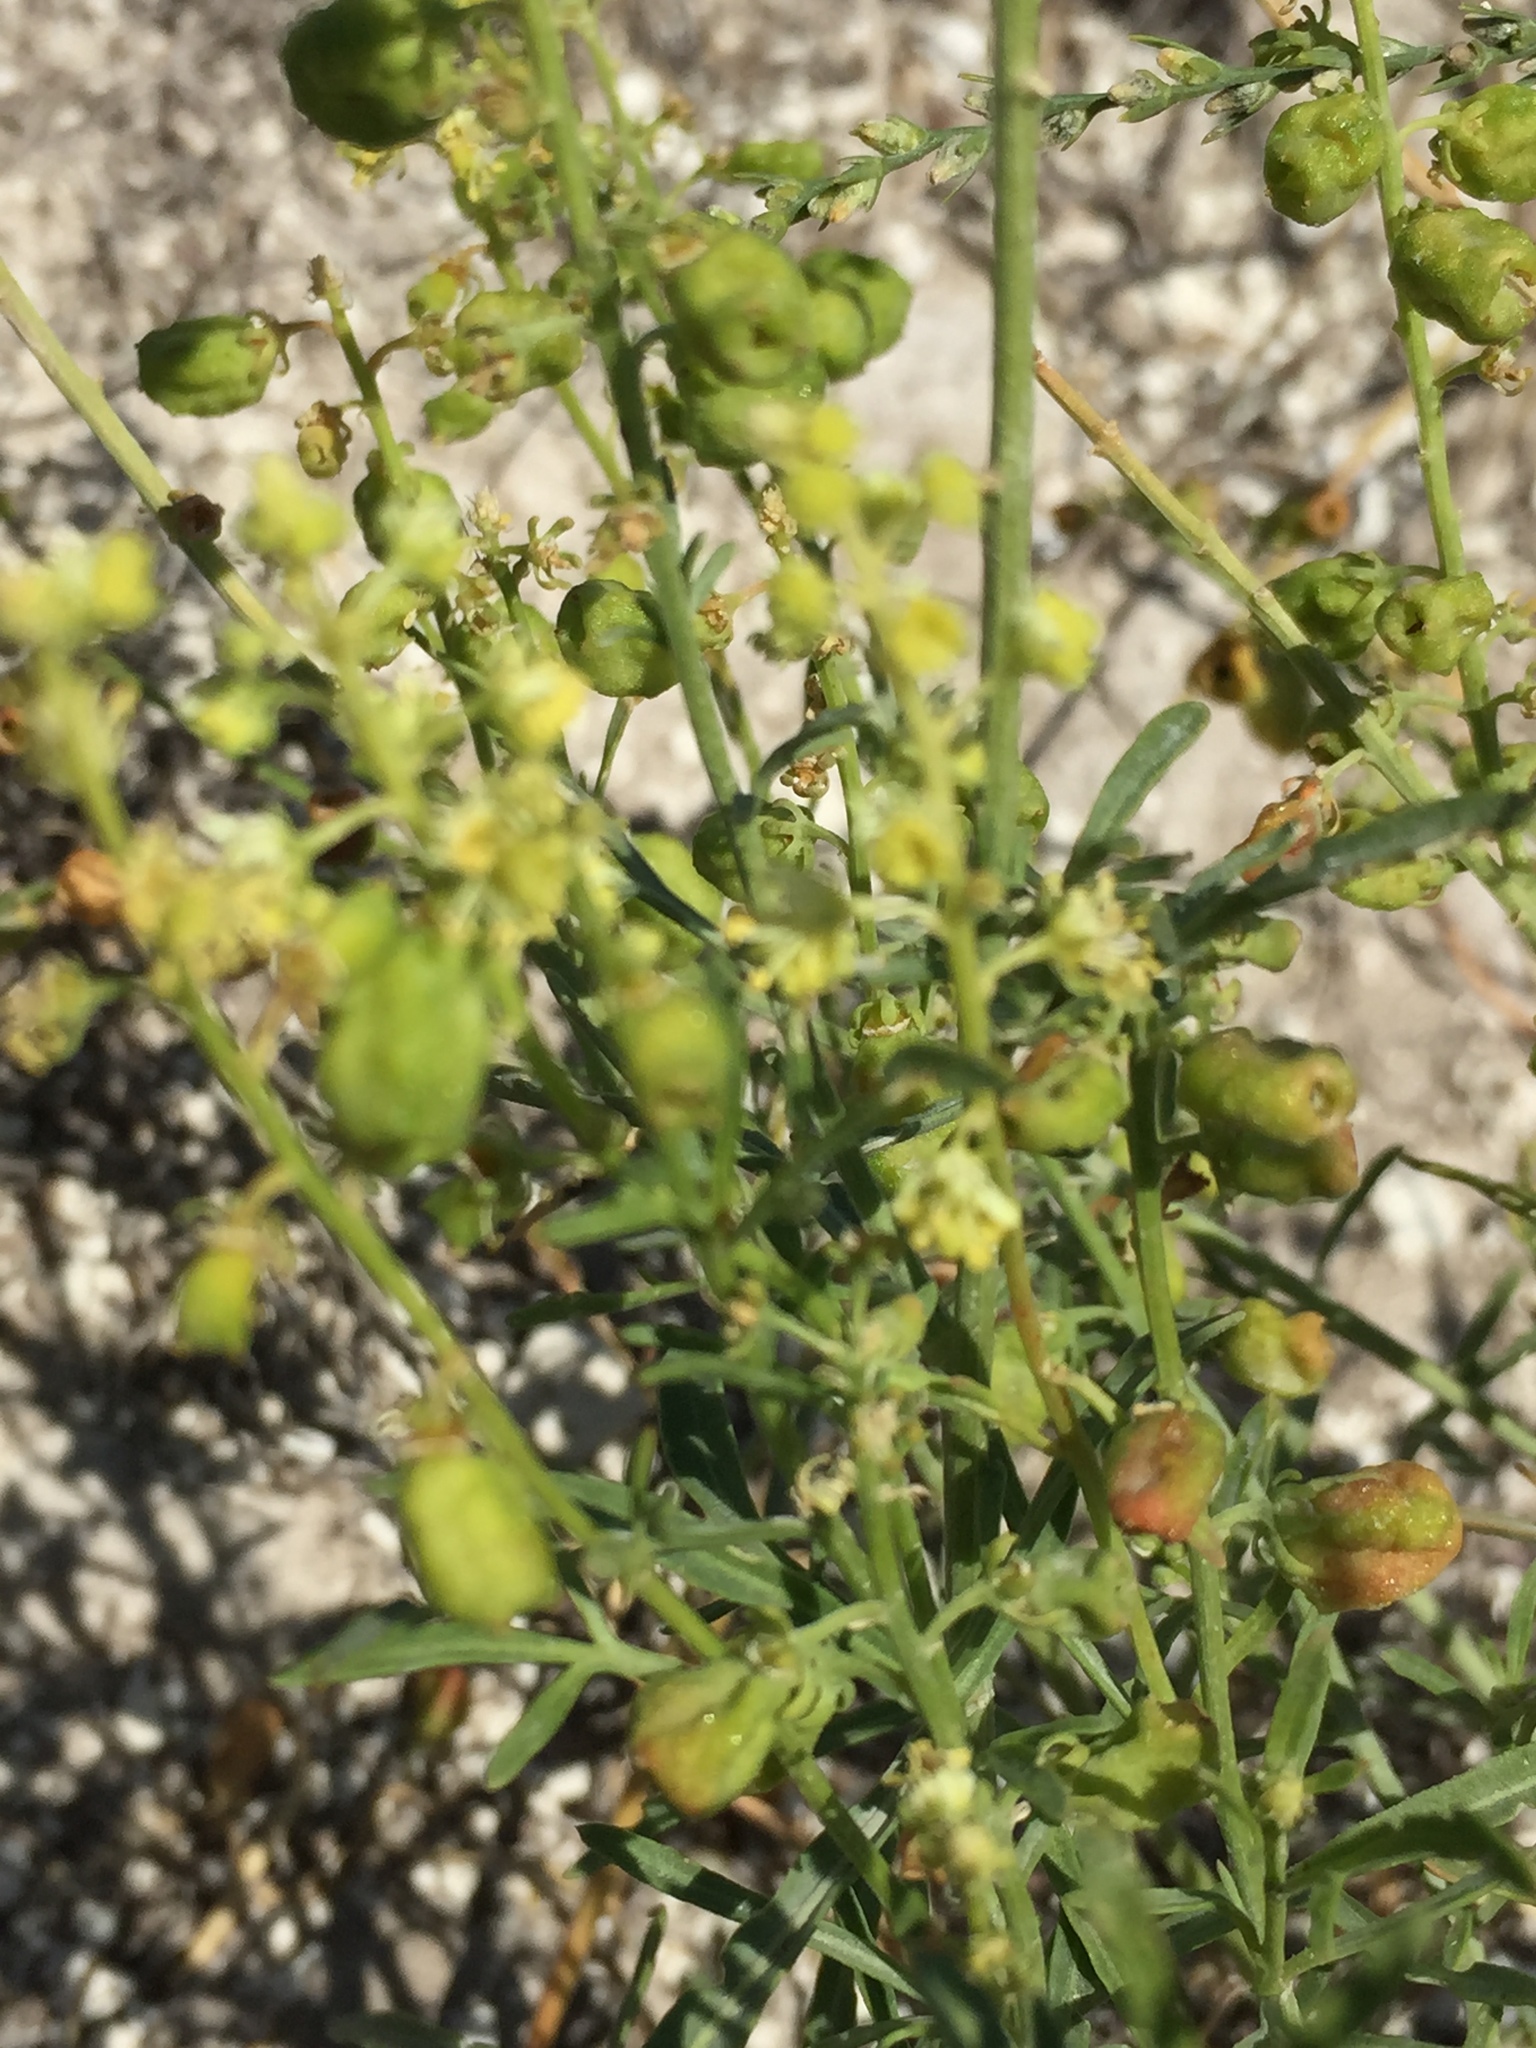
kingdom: Plantae
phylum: Tracheophyta
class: Magnoliopsida
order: Brassicales
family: Resedaceae
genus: Reseda
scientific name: Reseda lutea
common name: Wild mignonette
